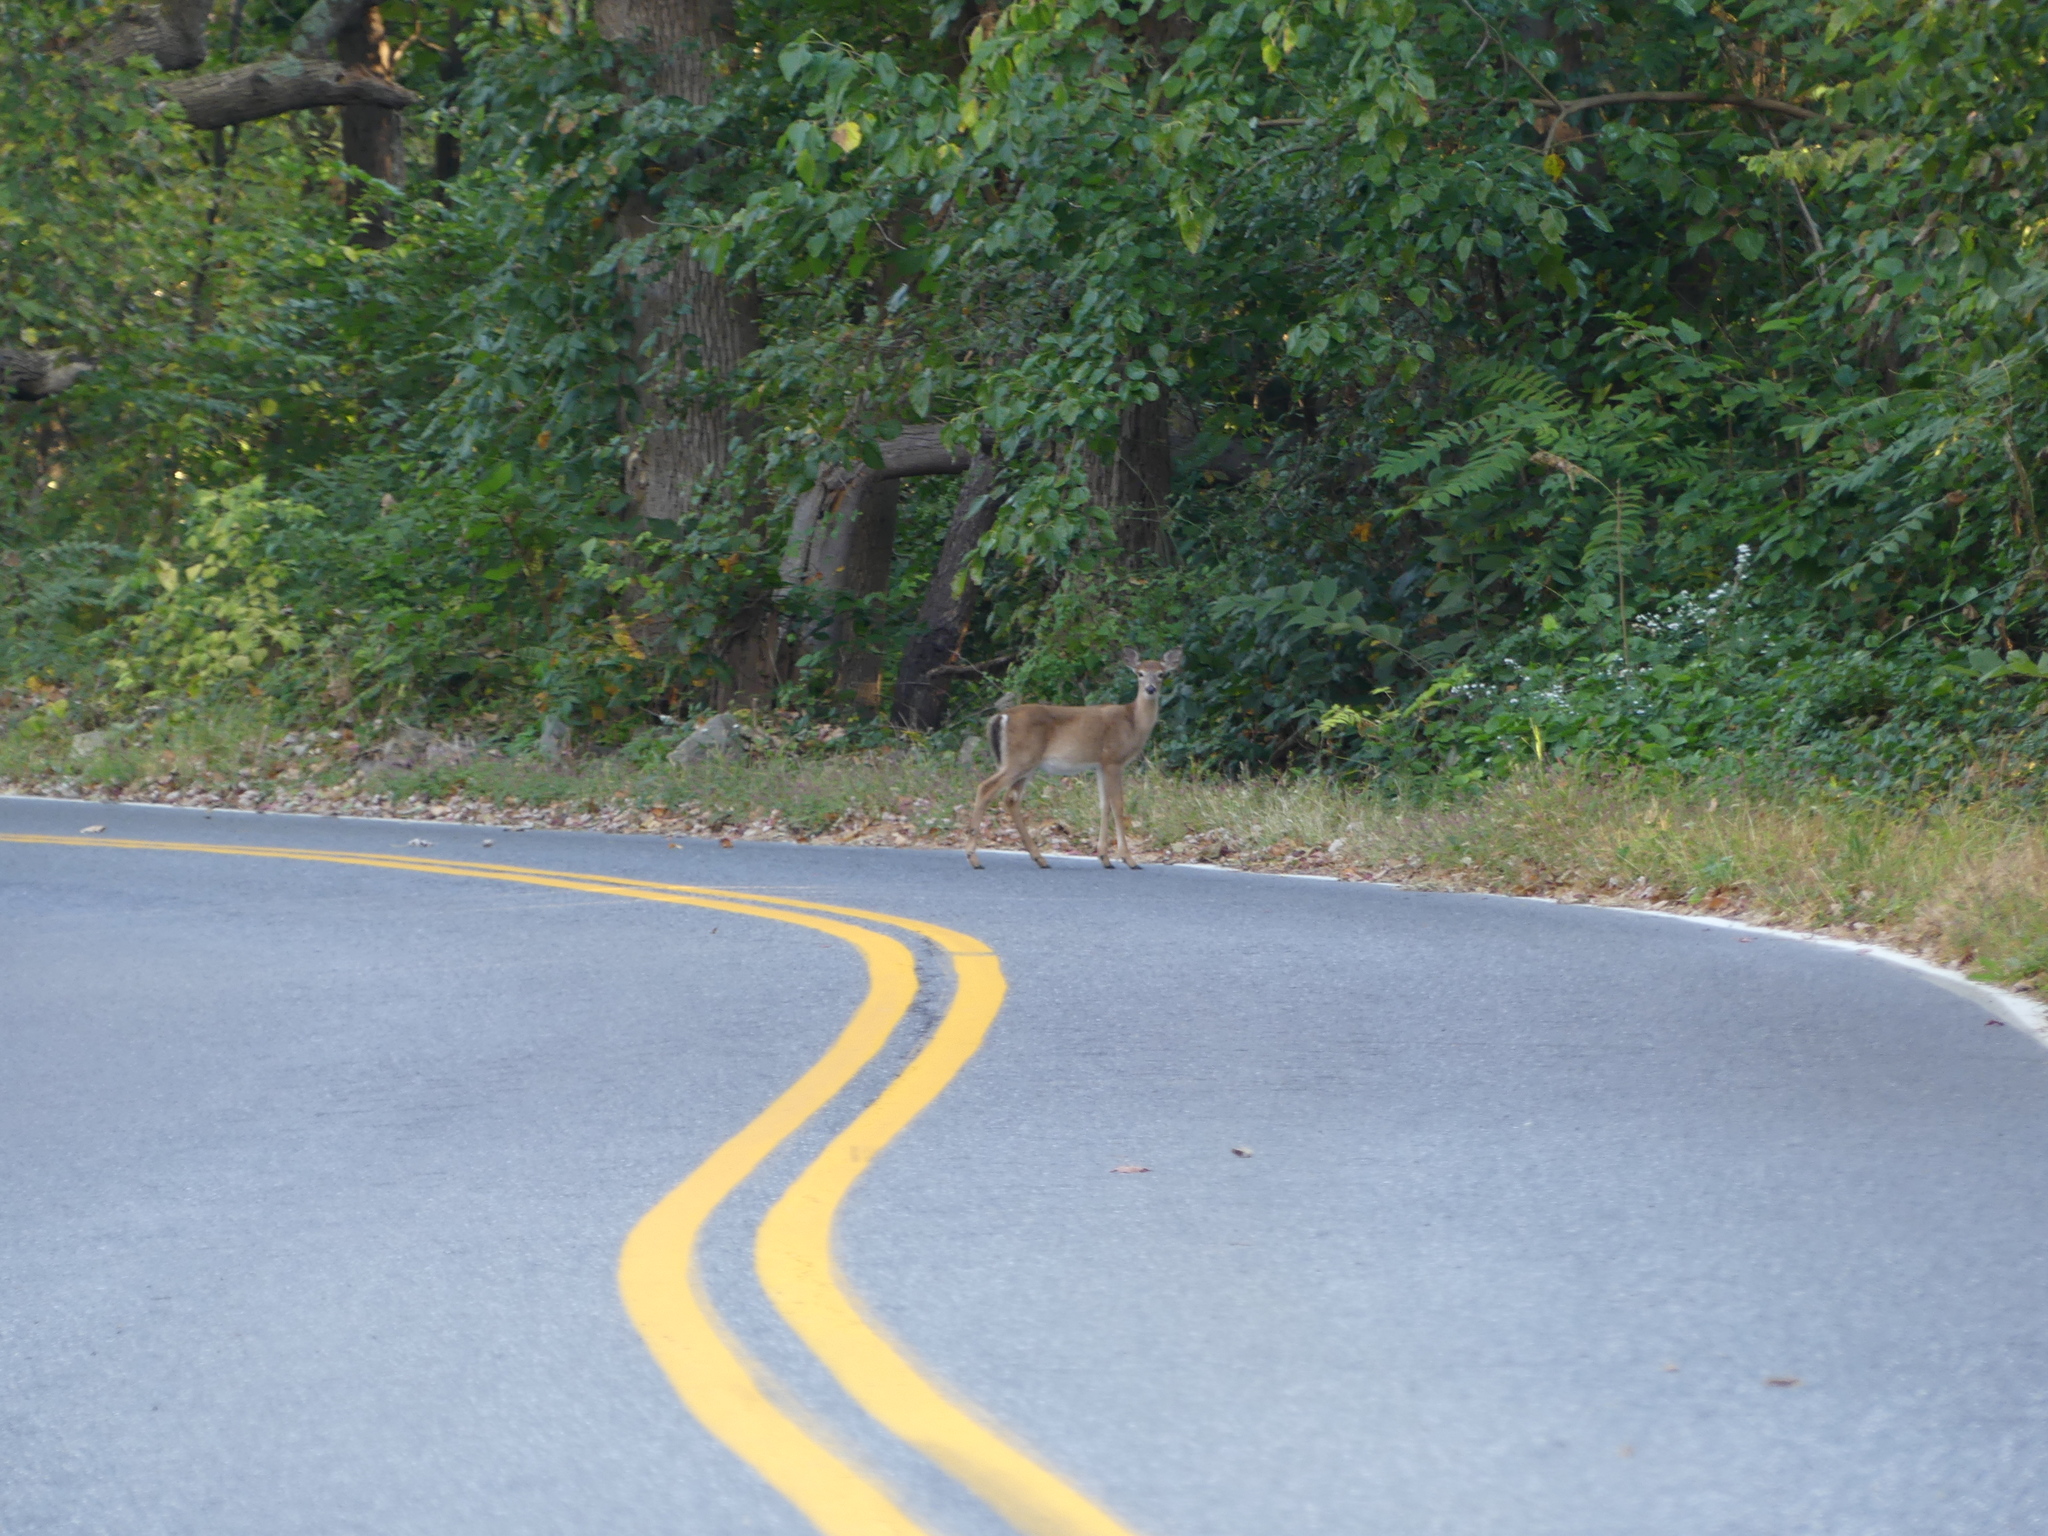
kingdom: Animalia
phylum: Chordata
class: Mammalia
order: Artiodactyla
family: Cervidae
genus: Odocoileus
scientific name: Odocoileus virginianus
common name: White-tailed deer
